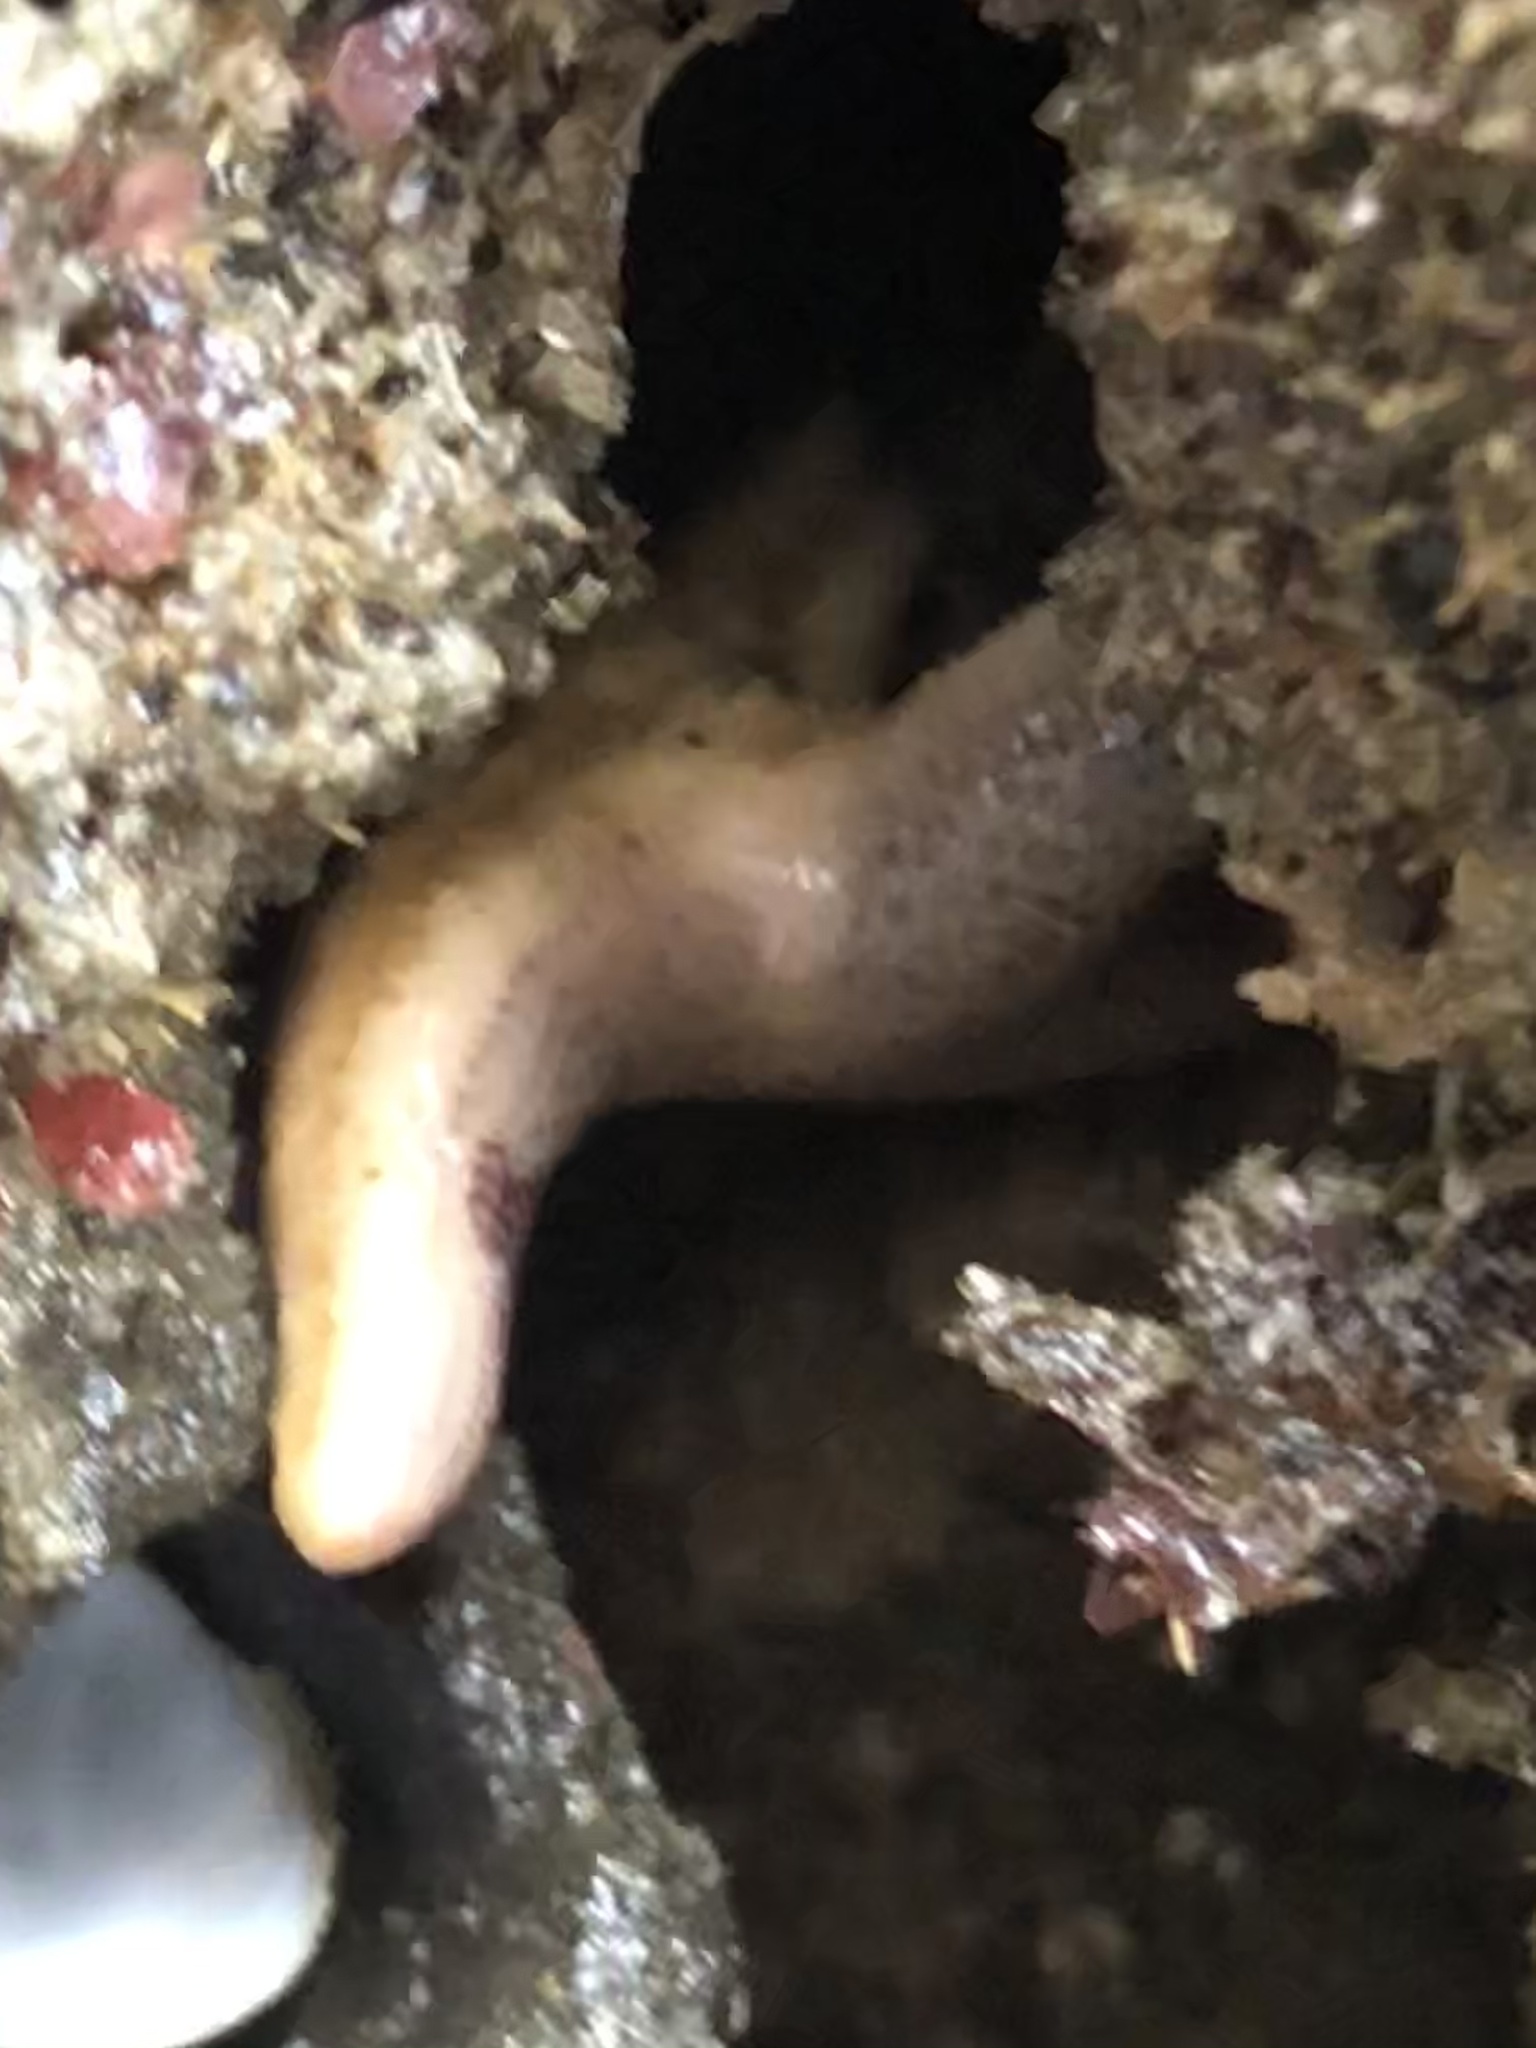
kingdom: Animalia
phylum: Echinodermata
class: Asteroidea
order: Spinulosida
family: Echinasteridae
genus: Henricia
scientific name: Henricia pumila
